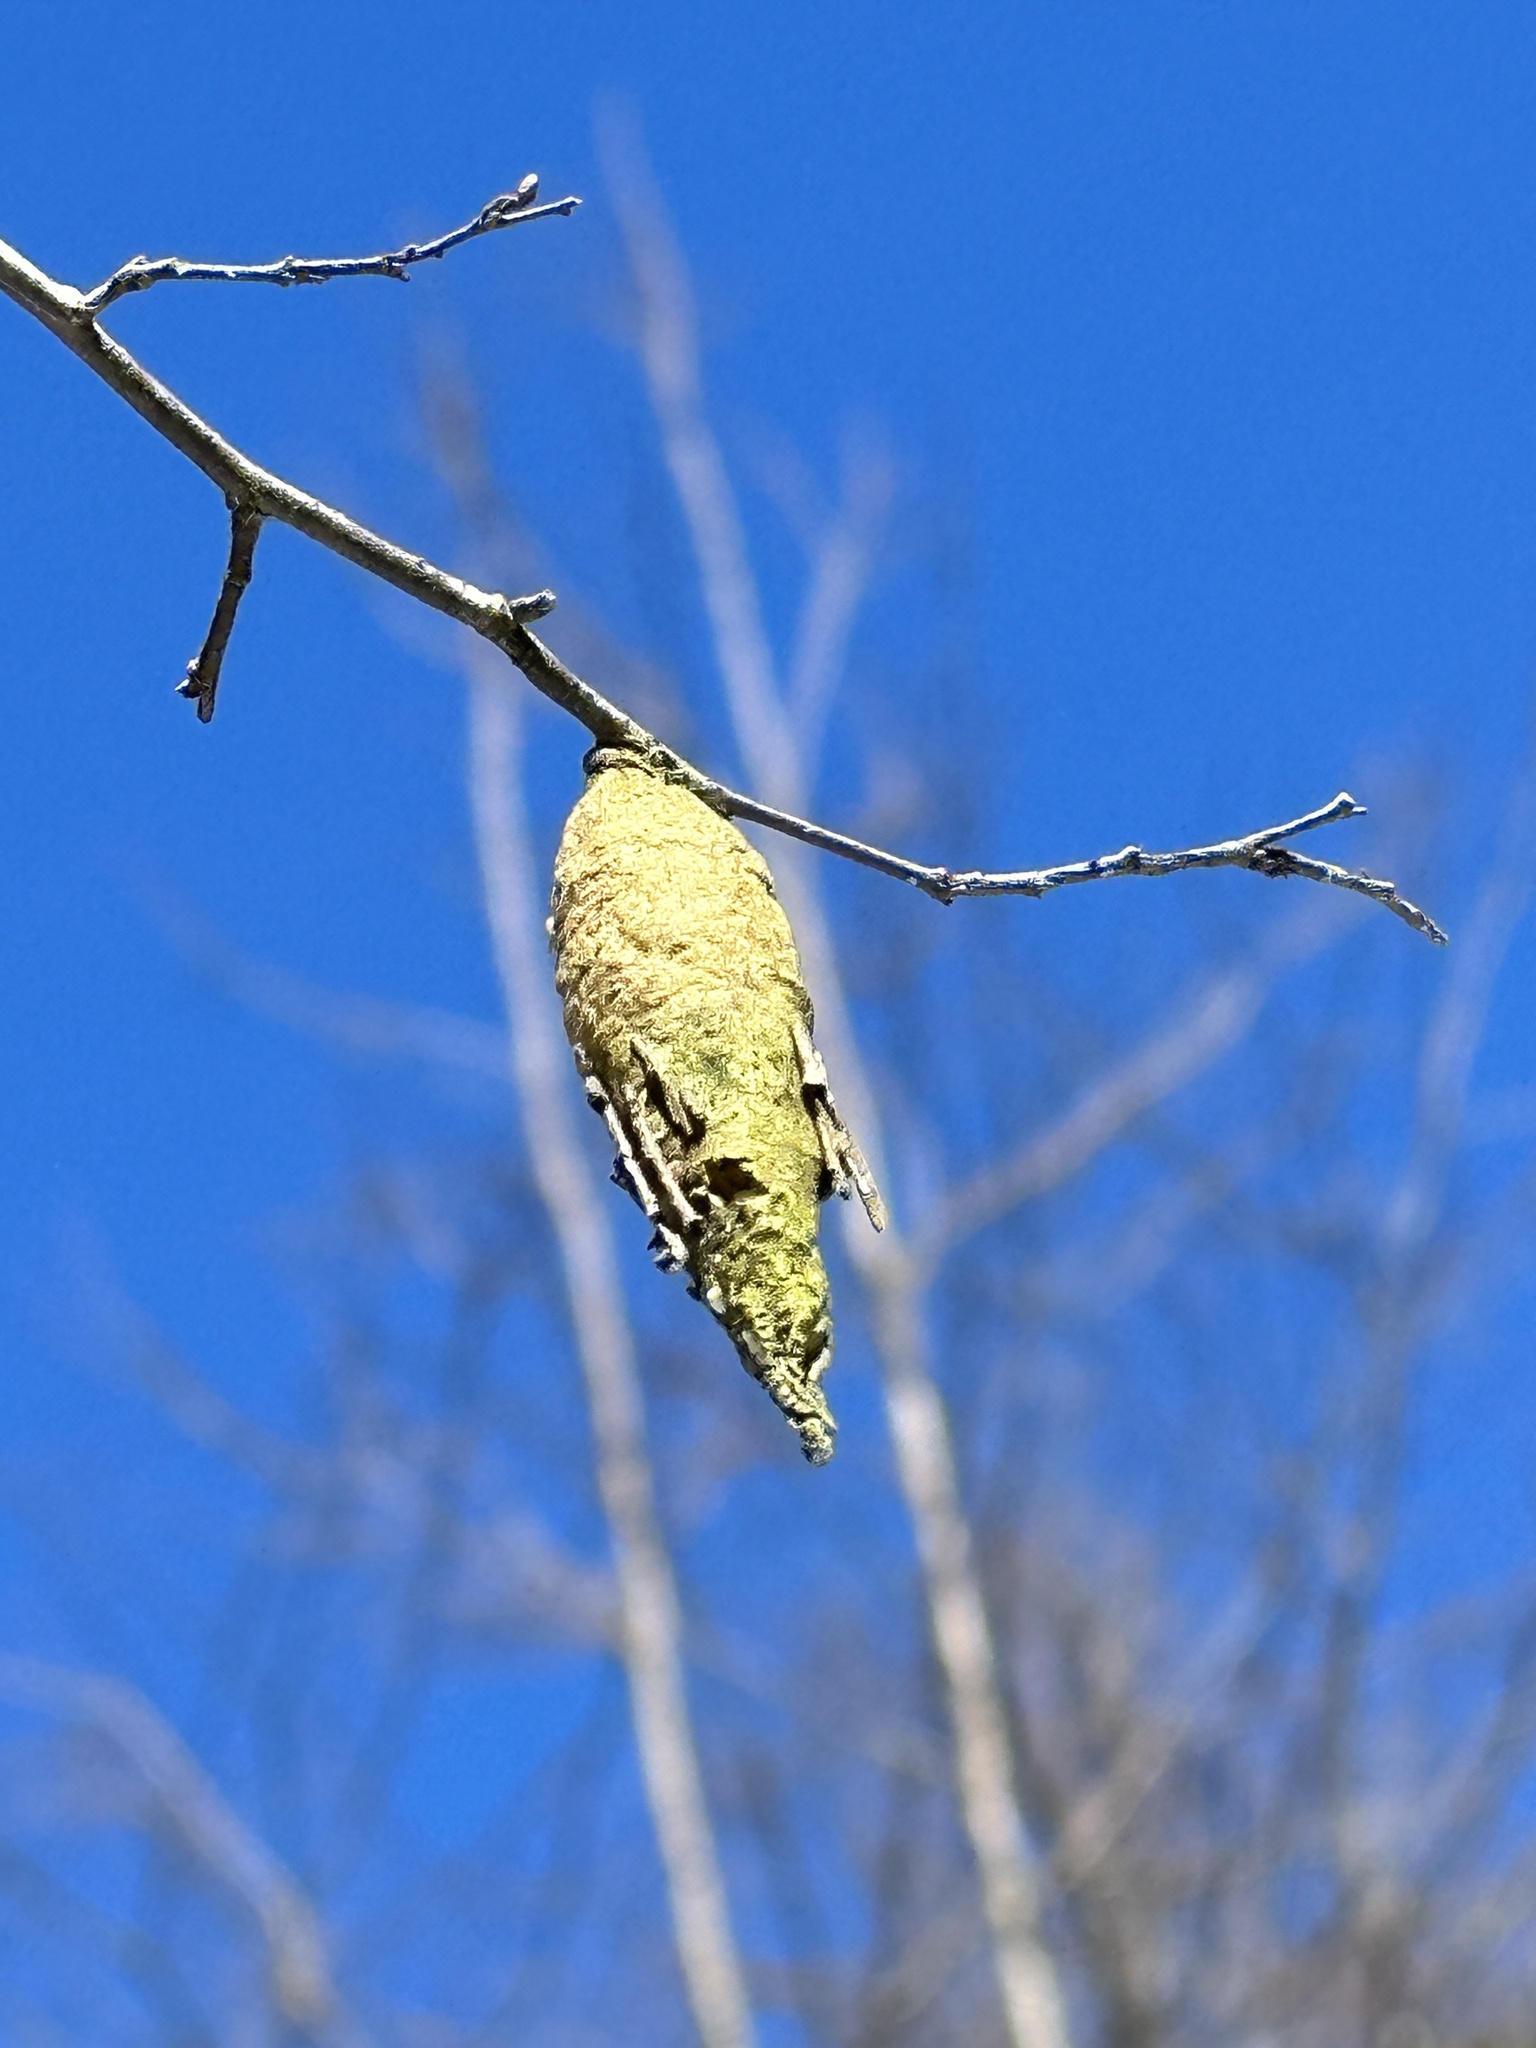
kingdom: Animalia
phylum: Arthropoda
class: Insecta
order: Lepidoptera
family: Psychidae
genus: Thanatopsyche
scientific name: Thanatopsyche chilensis
